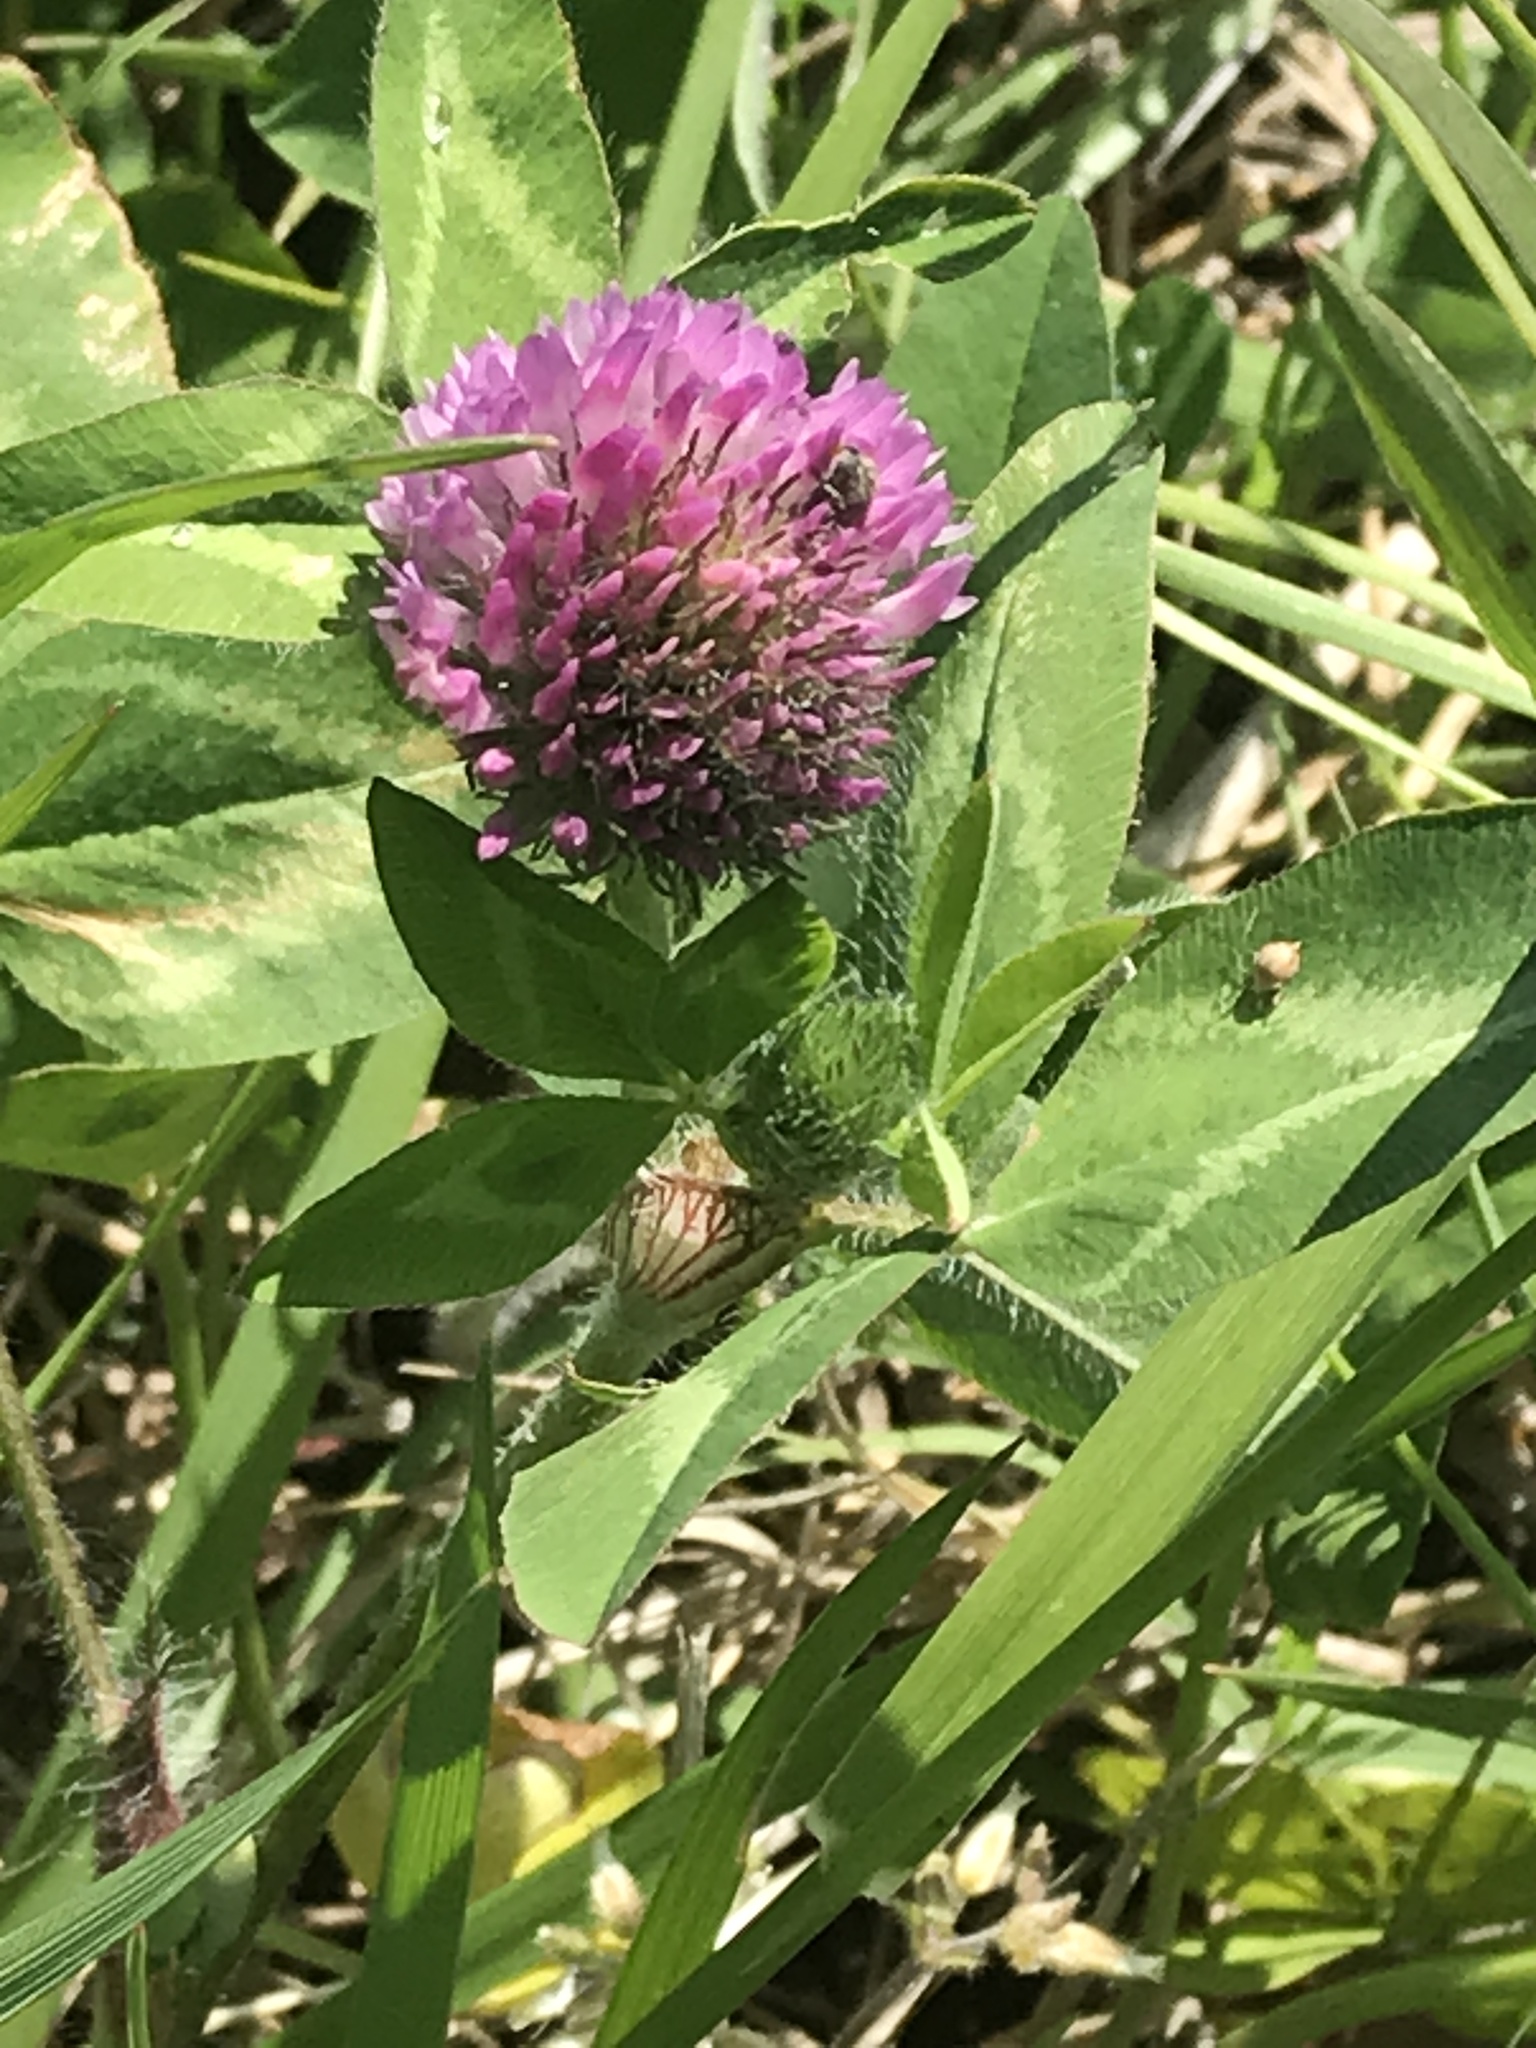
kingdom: Plantae
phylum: Tracheophyta
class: Magnoliopsida
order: Fabales
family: Fabaceae
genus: Trifolium
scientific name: Trifolium pratense
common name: Red clover
